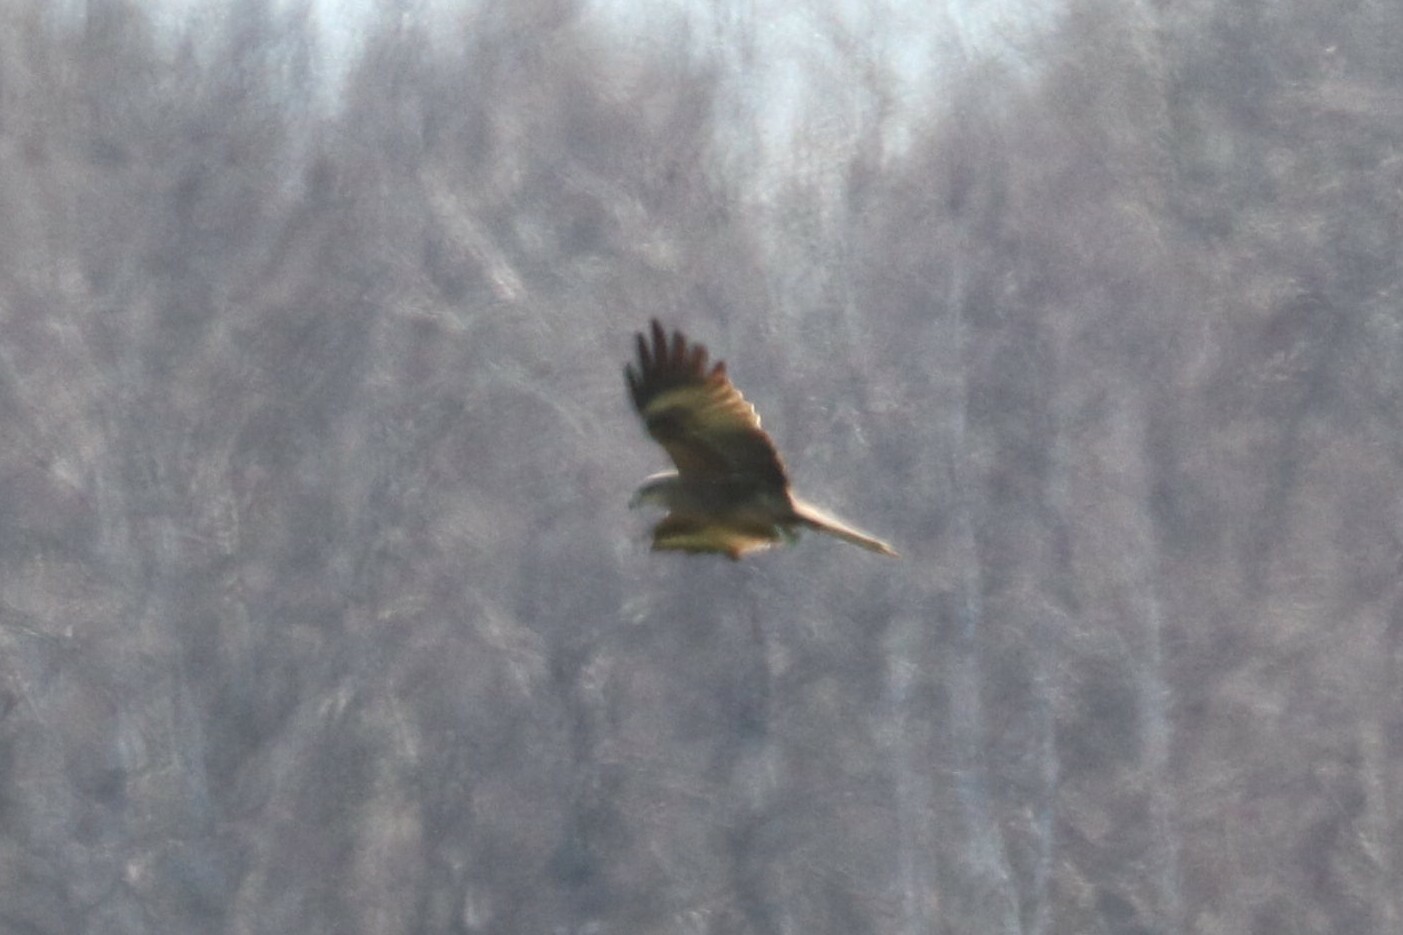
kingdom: Animalia
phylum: Chordata
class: Aves
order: Accipitriformes
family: Accipitridae
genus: Milvus
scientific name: Milvus migrans
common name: Black kite
